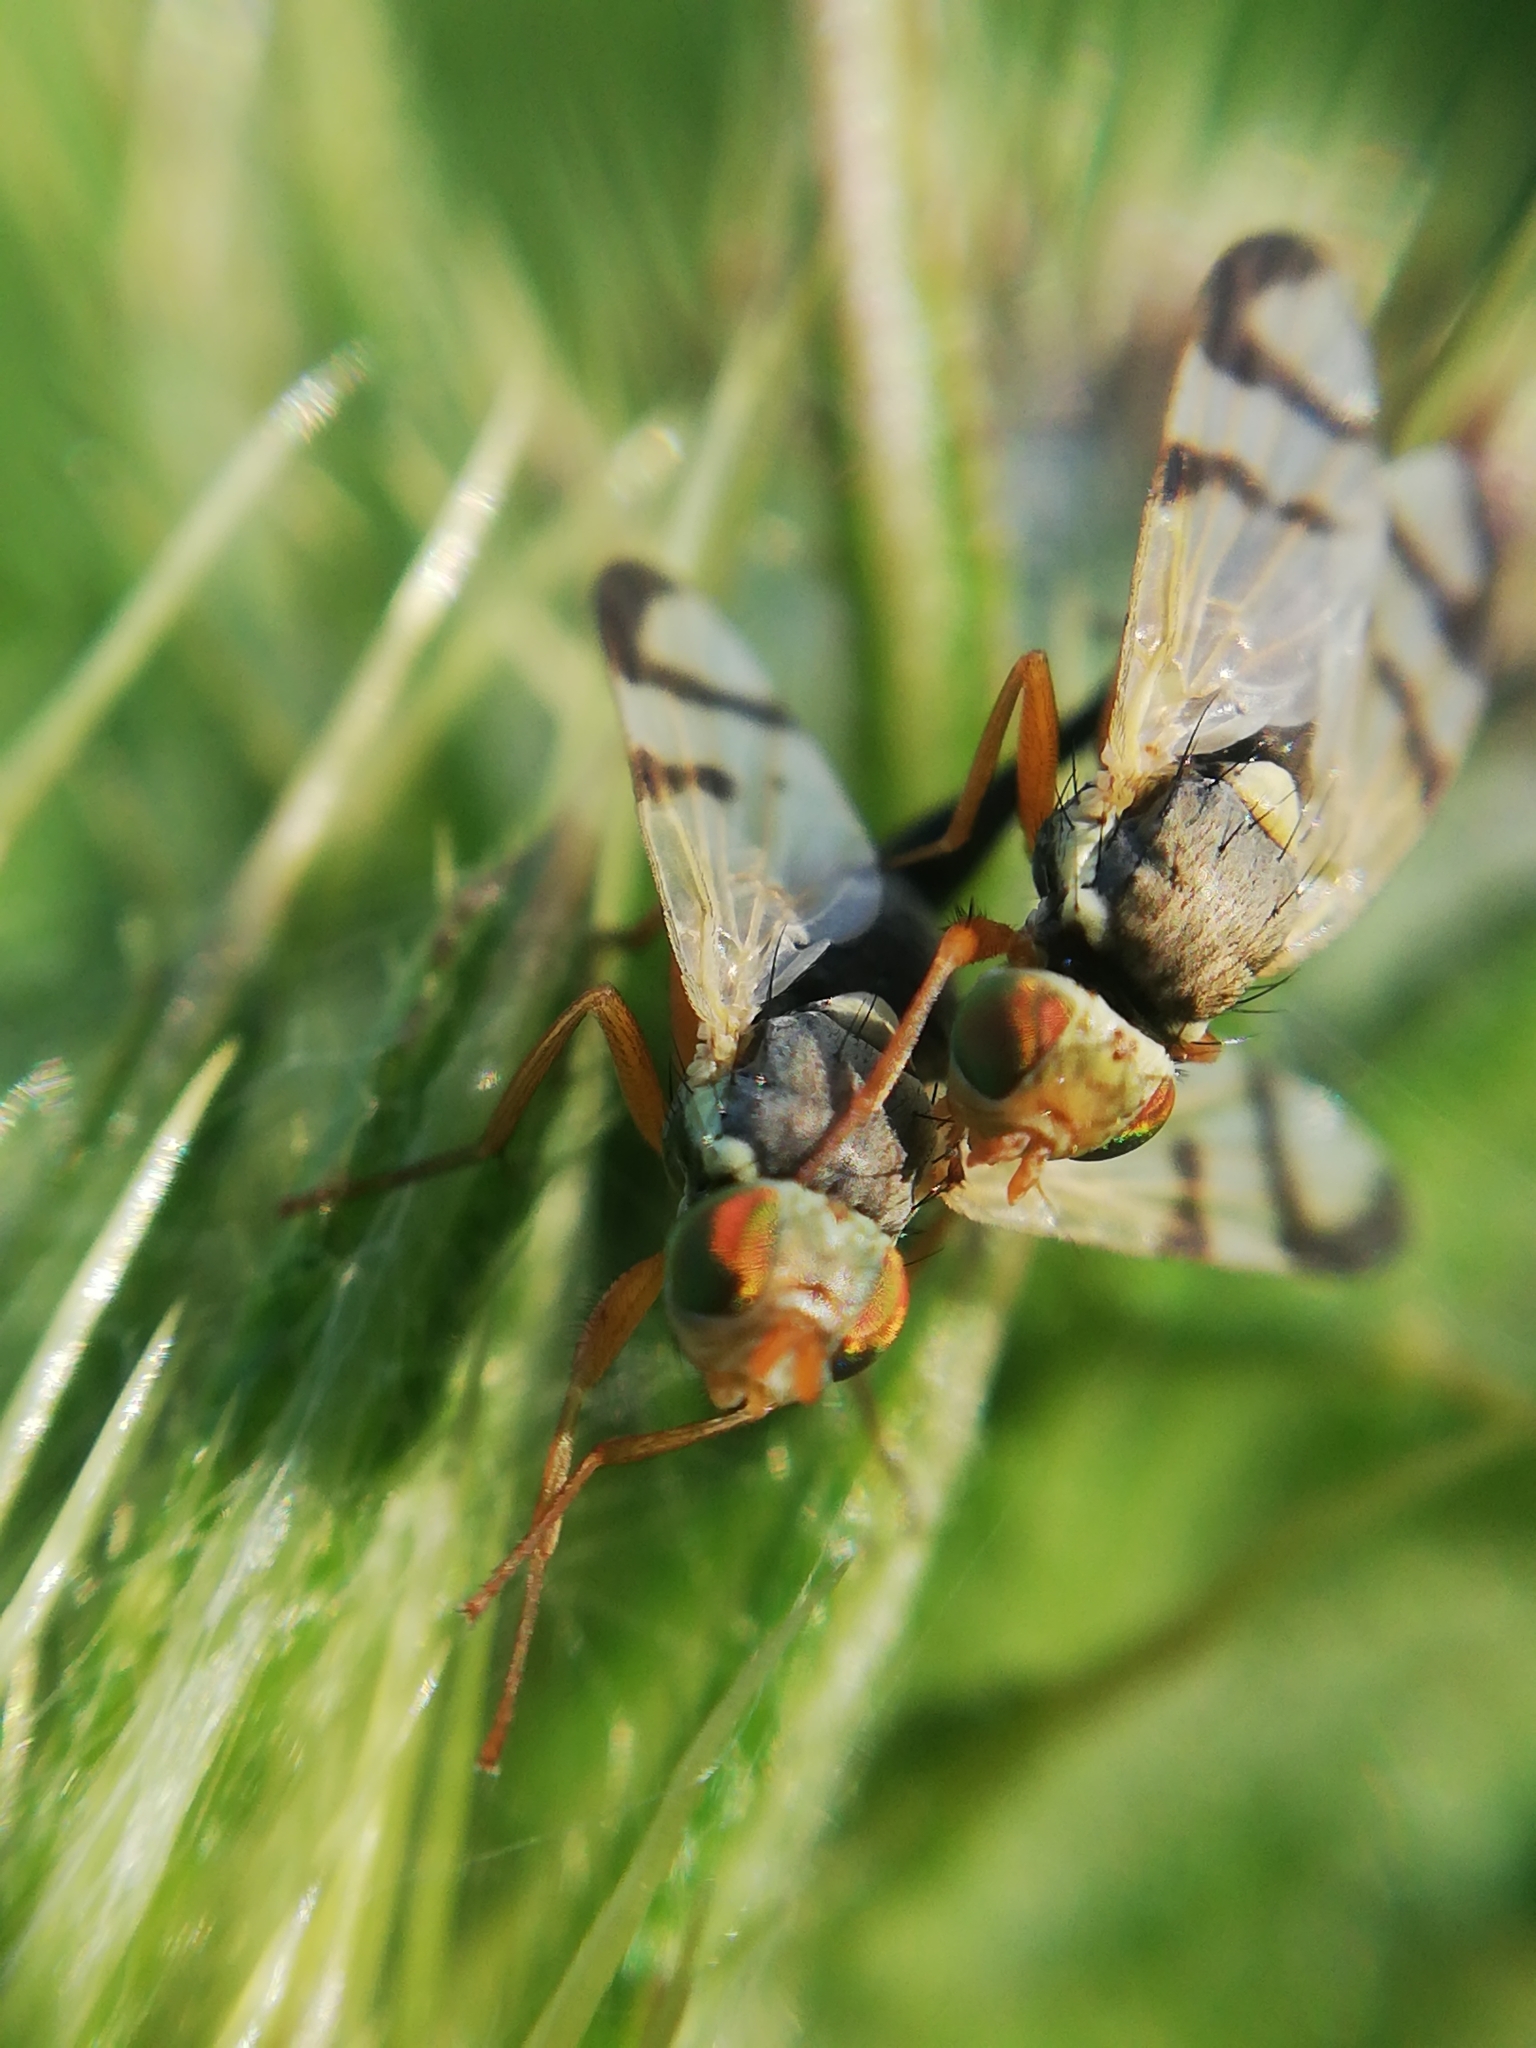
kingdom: Animalia
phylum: Arthropoda
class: Insecta
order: Diptera
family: Tephritidae
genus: Urophora
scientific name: Urophora stylata
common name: Fruit fly
